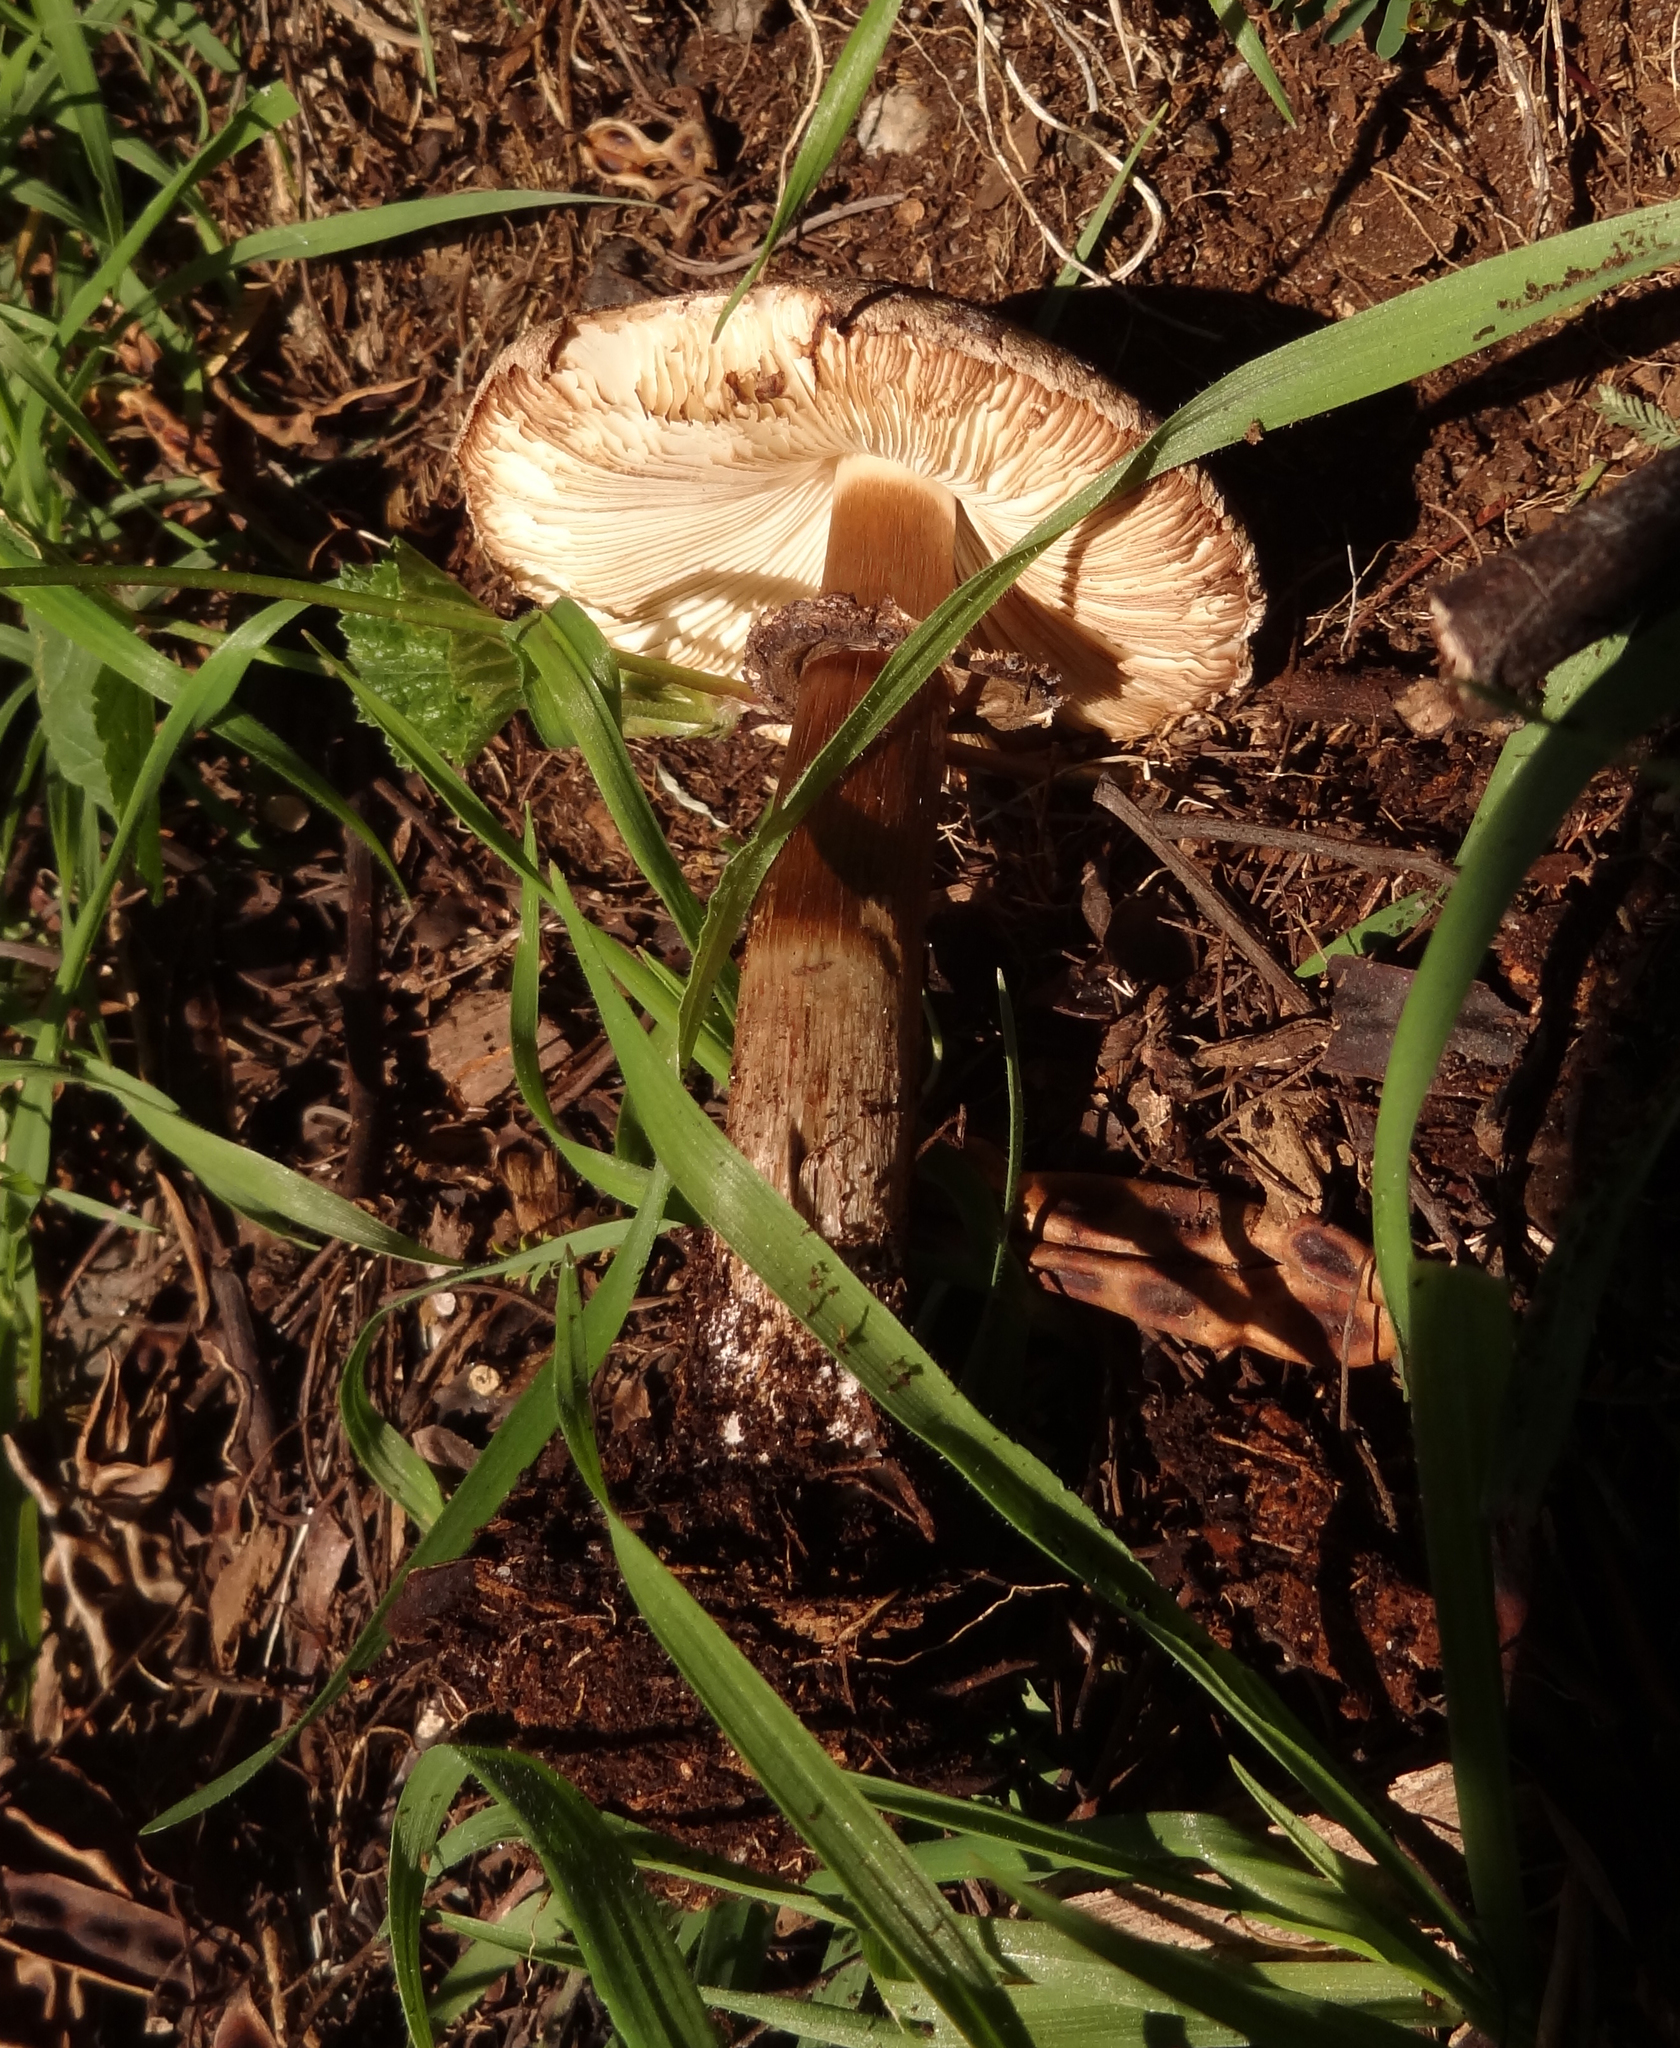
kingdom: Fungi
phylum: Basidiomycota
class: Agaricomycetes
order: Agaricales
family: Agaricaceae
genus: Chlorophyllum
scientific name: Chlorophyllum brunneum
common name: Brown parasol
